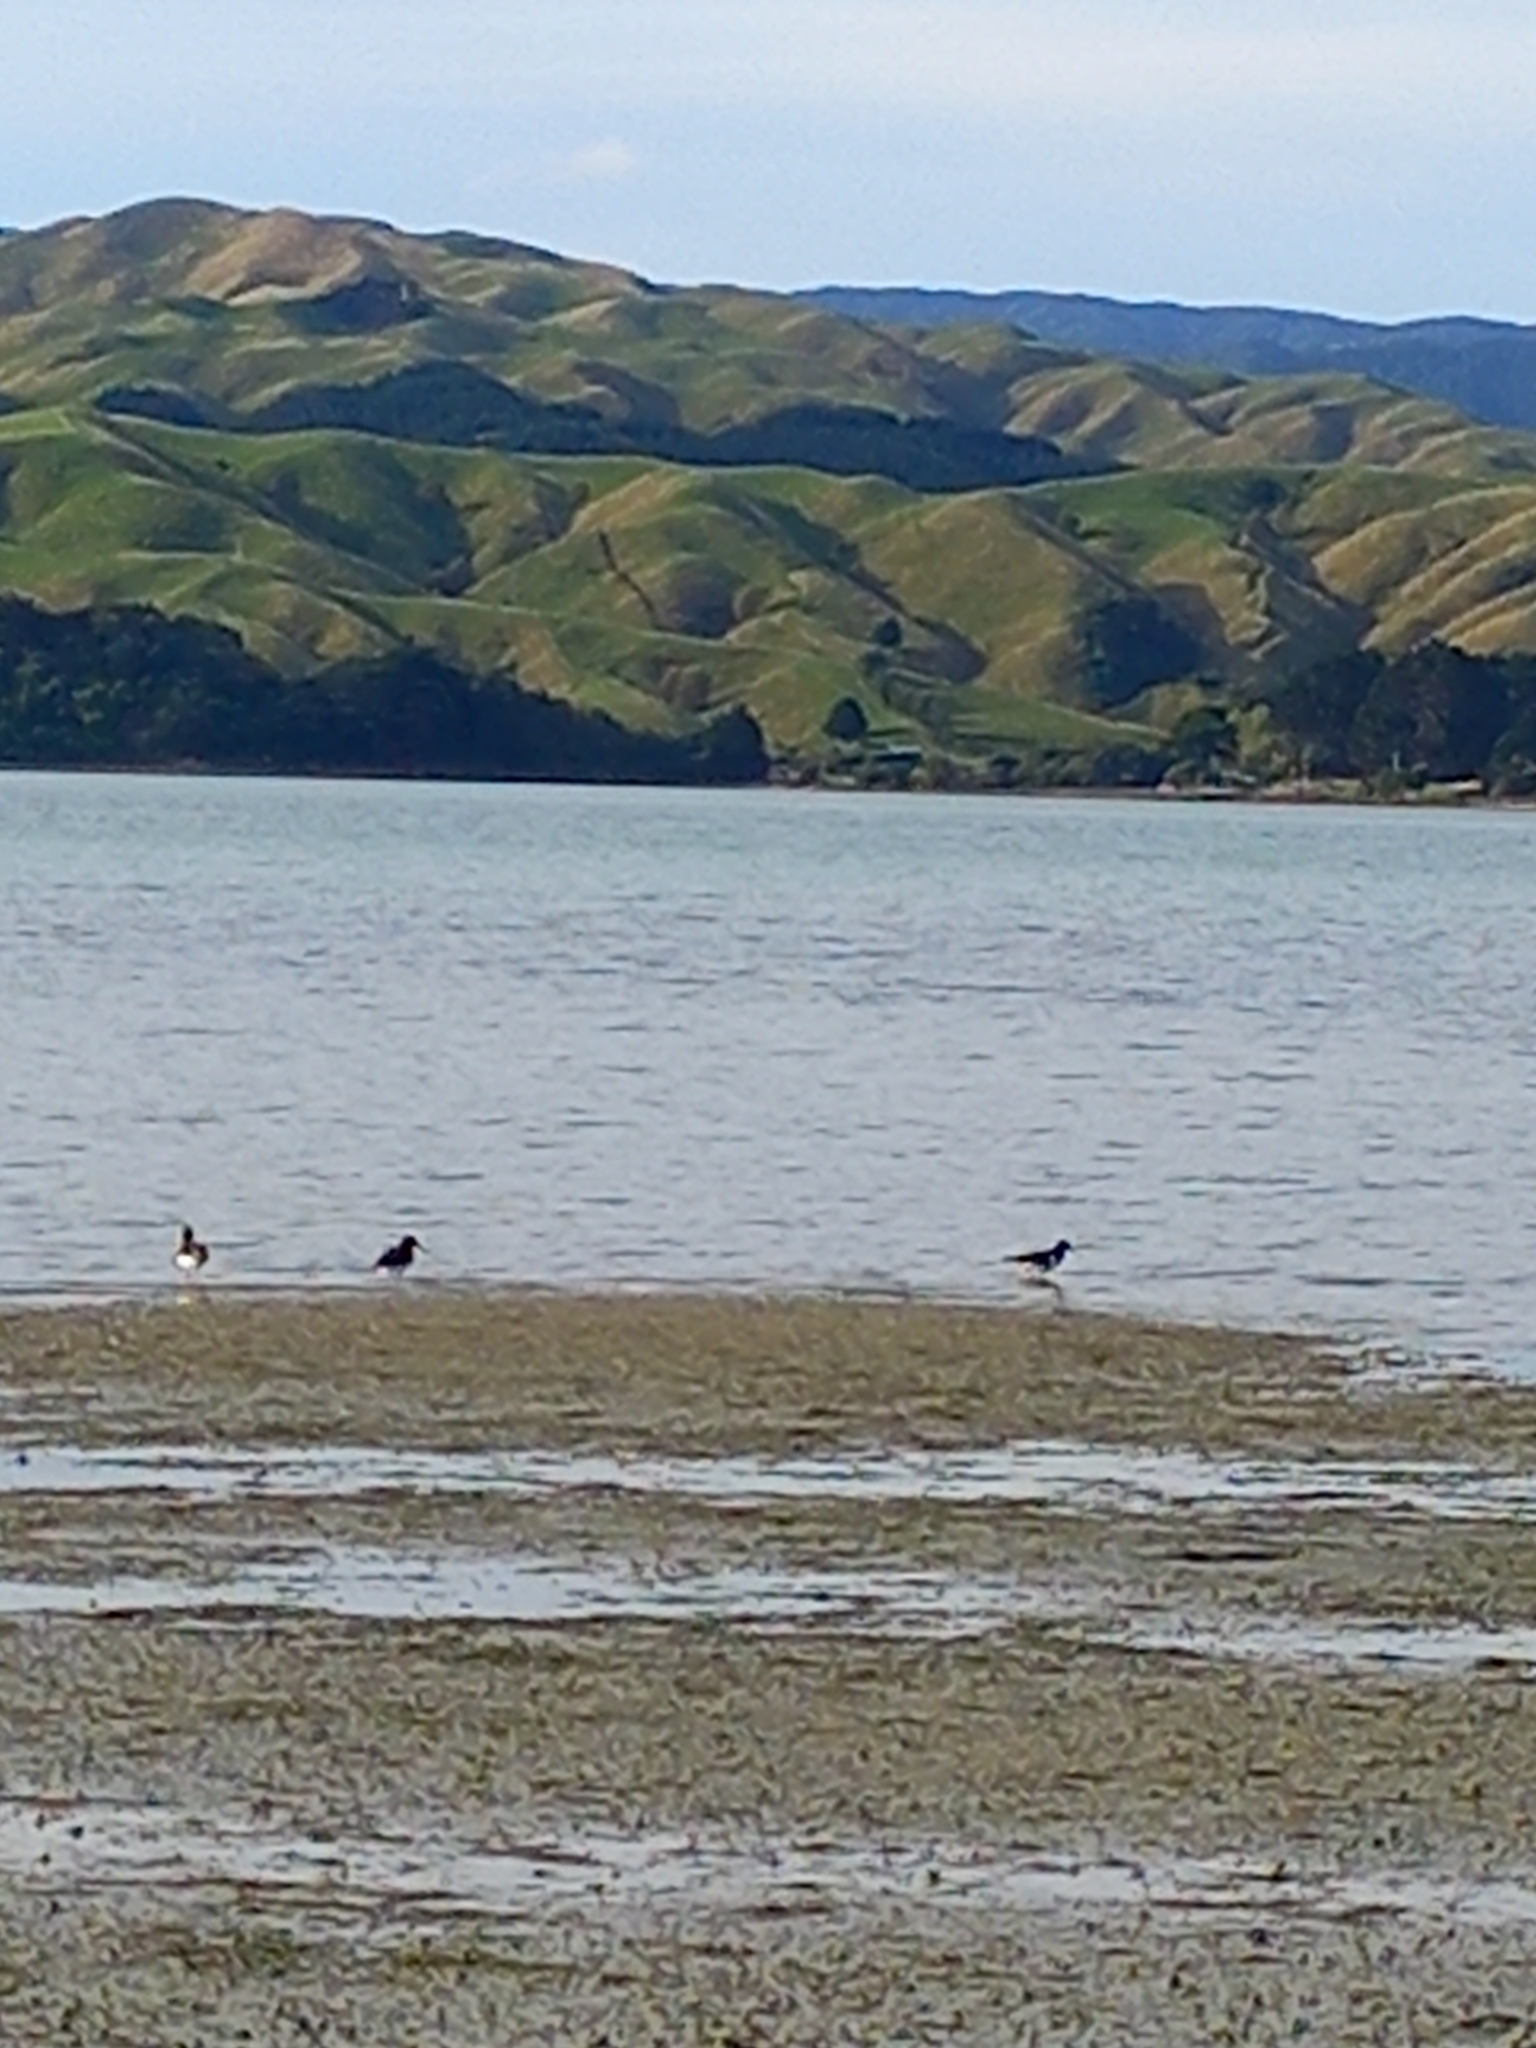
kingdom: Animalia
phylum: Chordata
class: Aves
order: Charadriiformes
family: Haematopodidae
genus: Haematopus
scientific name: Haematopus finschi
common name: South island oystercatcher
